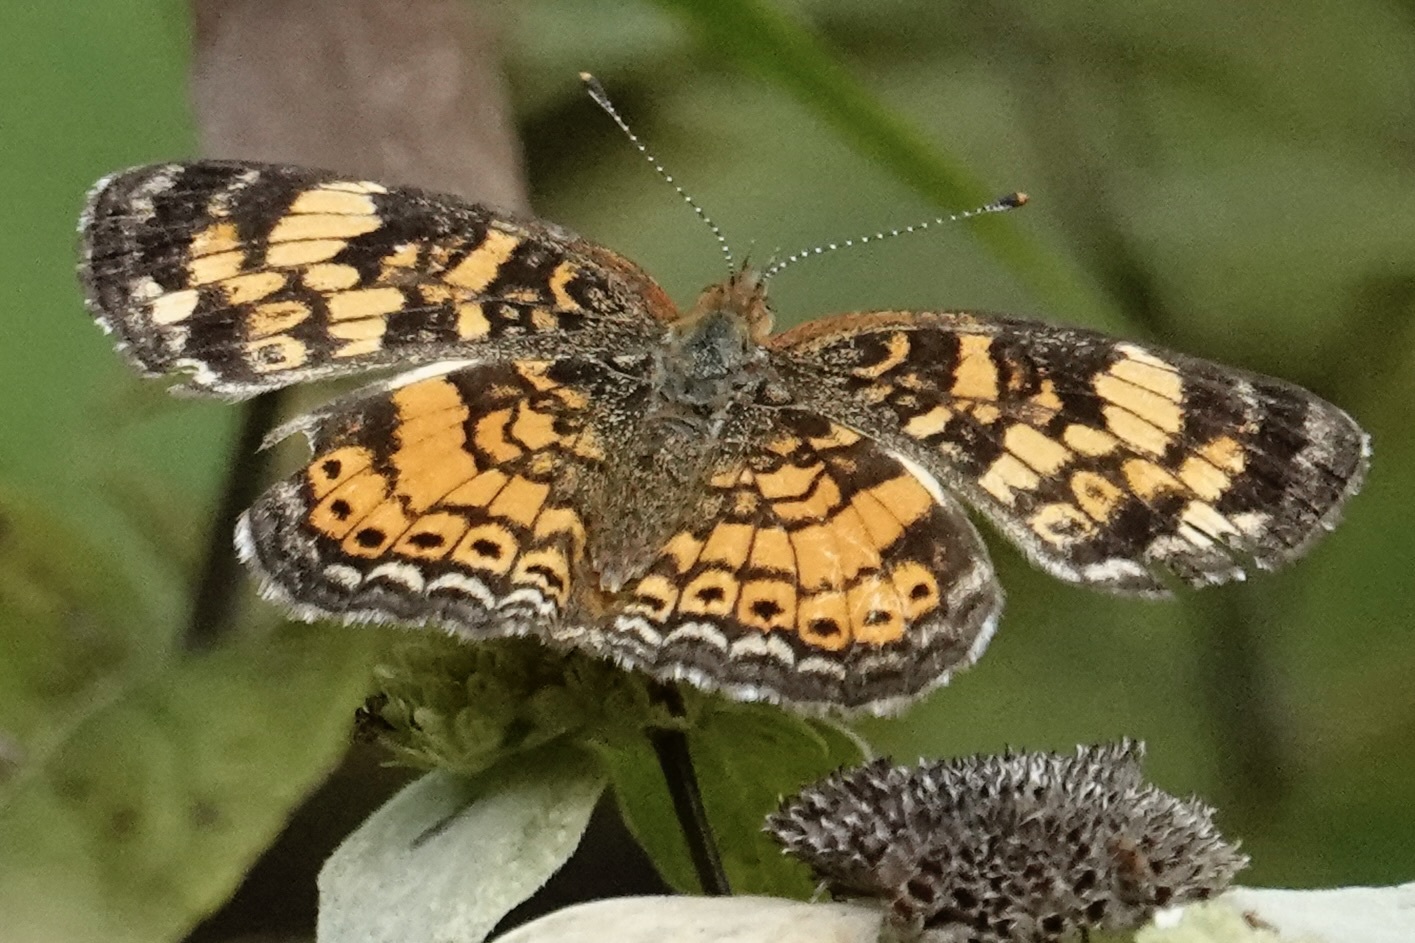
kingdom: Animalia
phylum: Arthropoda
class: Insecta
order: Lepidoptera
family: Nymphalidae
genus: Phyciodes
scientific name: Phyciodes tharos
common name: Pearl crescent
